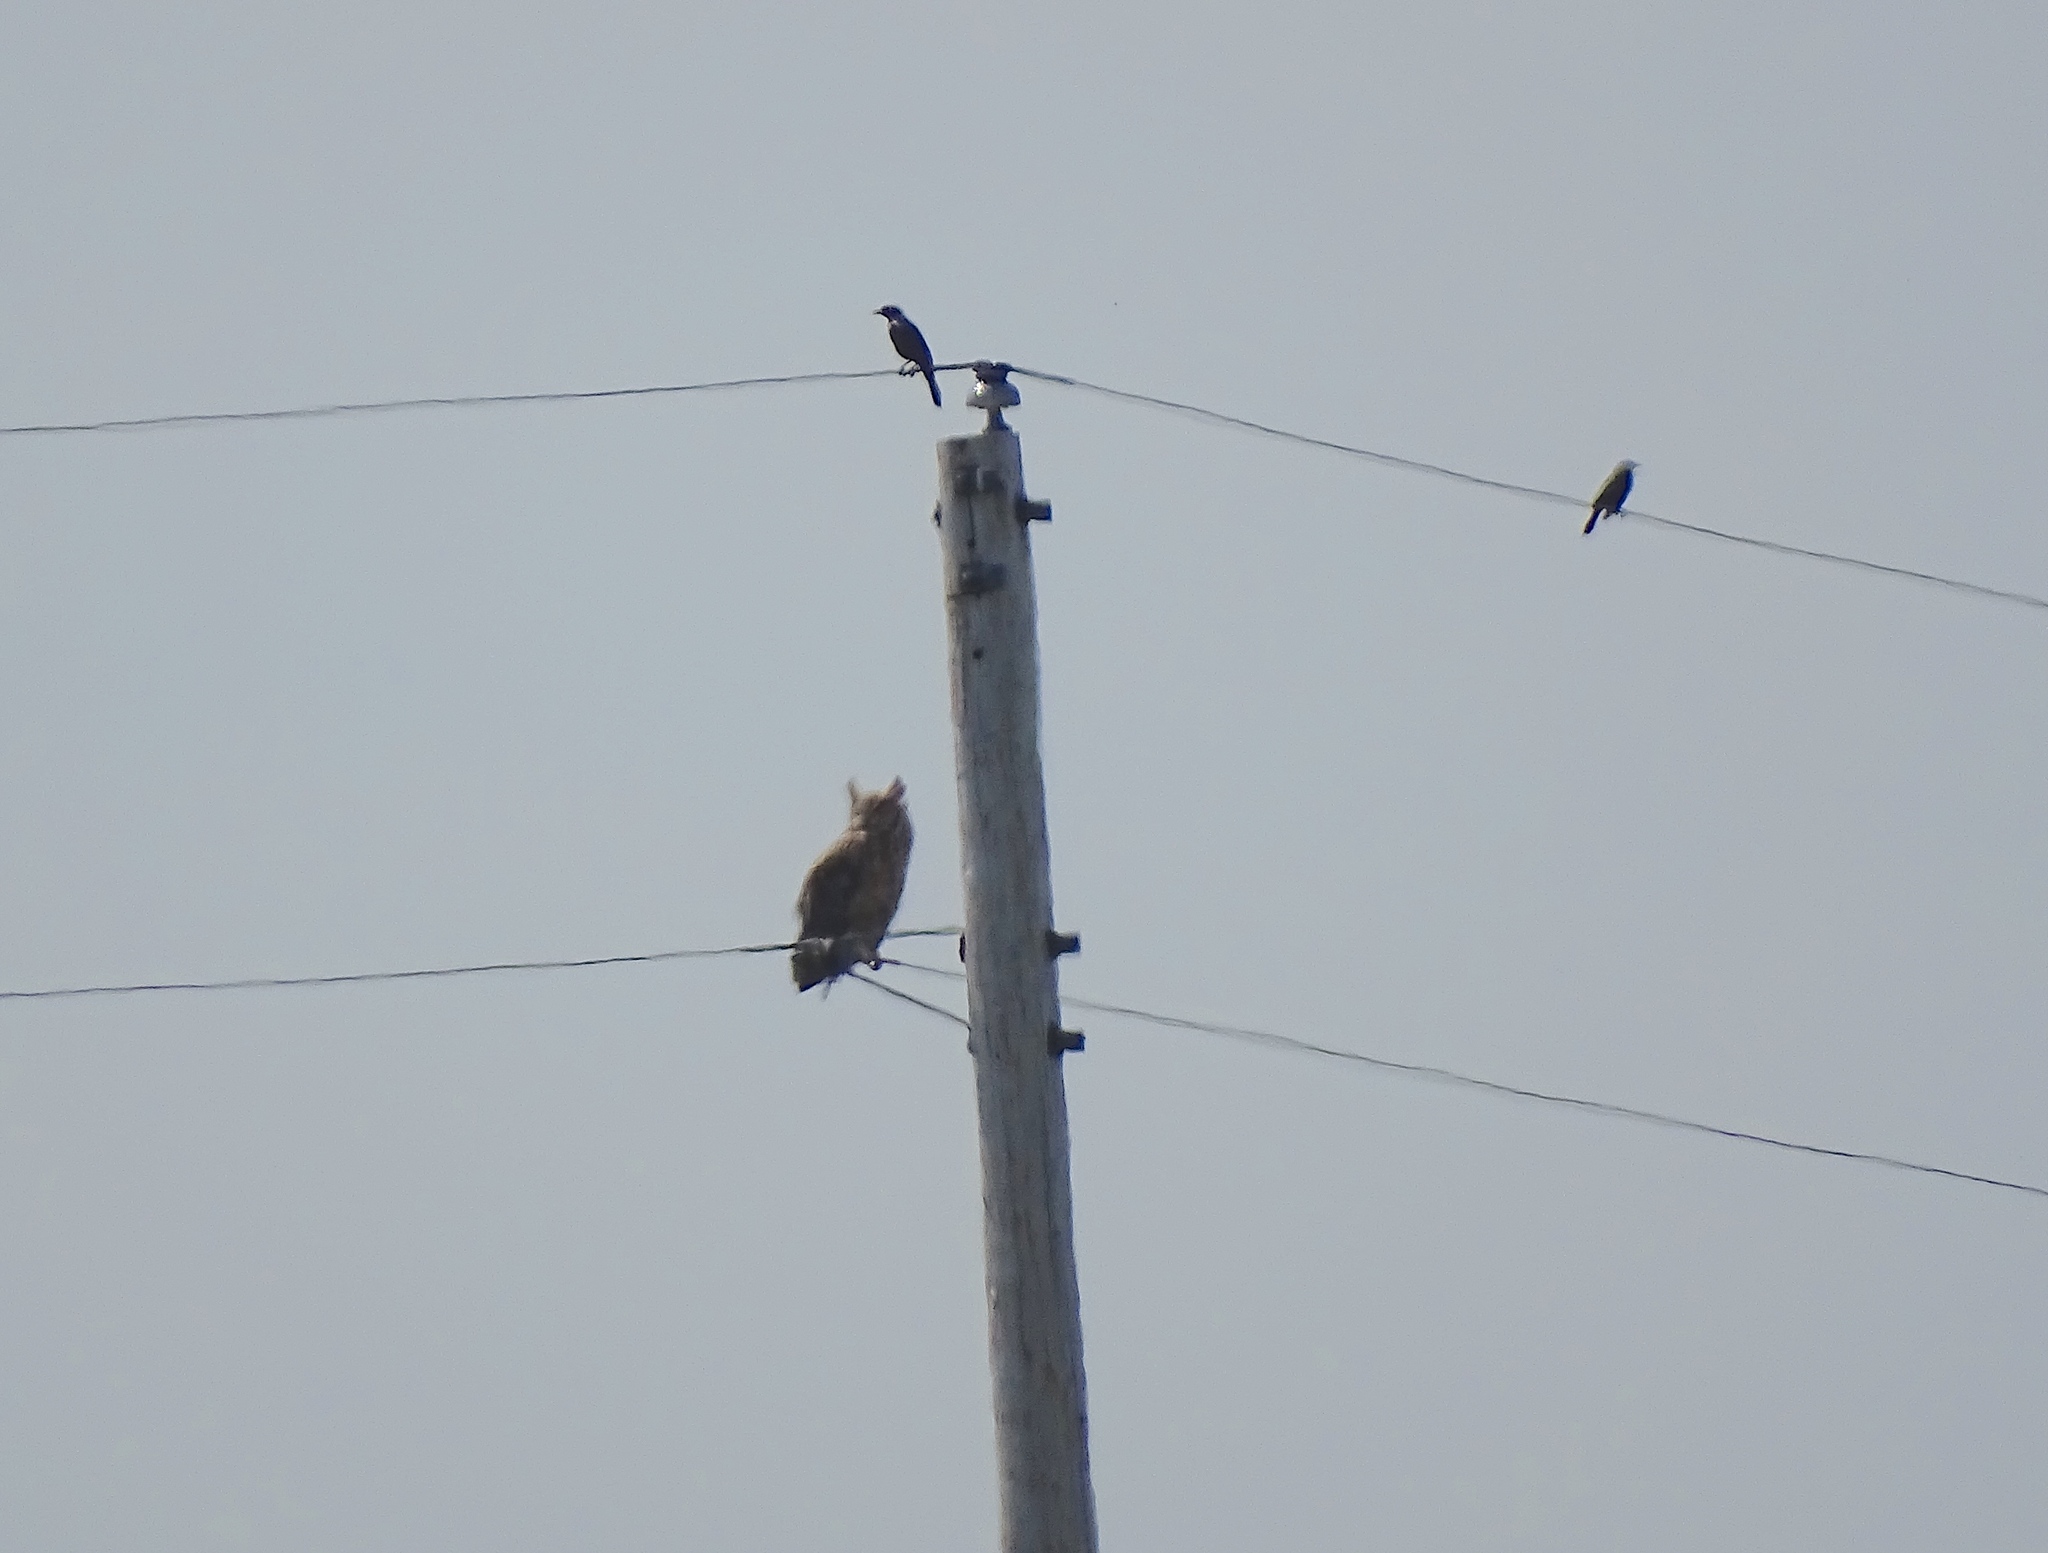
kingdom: Animalia
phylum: Chordata
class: Aves
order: Strigiformes
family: Strigidae
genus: Bubo
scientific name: Bubo virginianus
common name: Great horned owl
